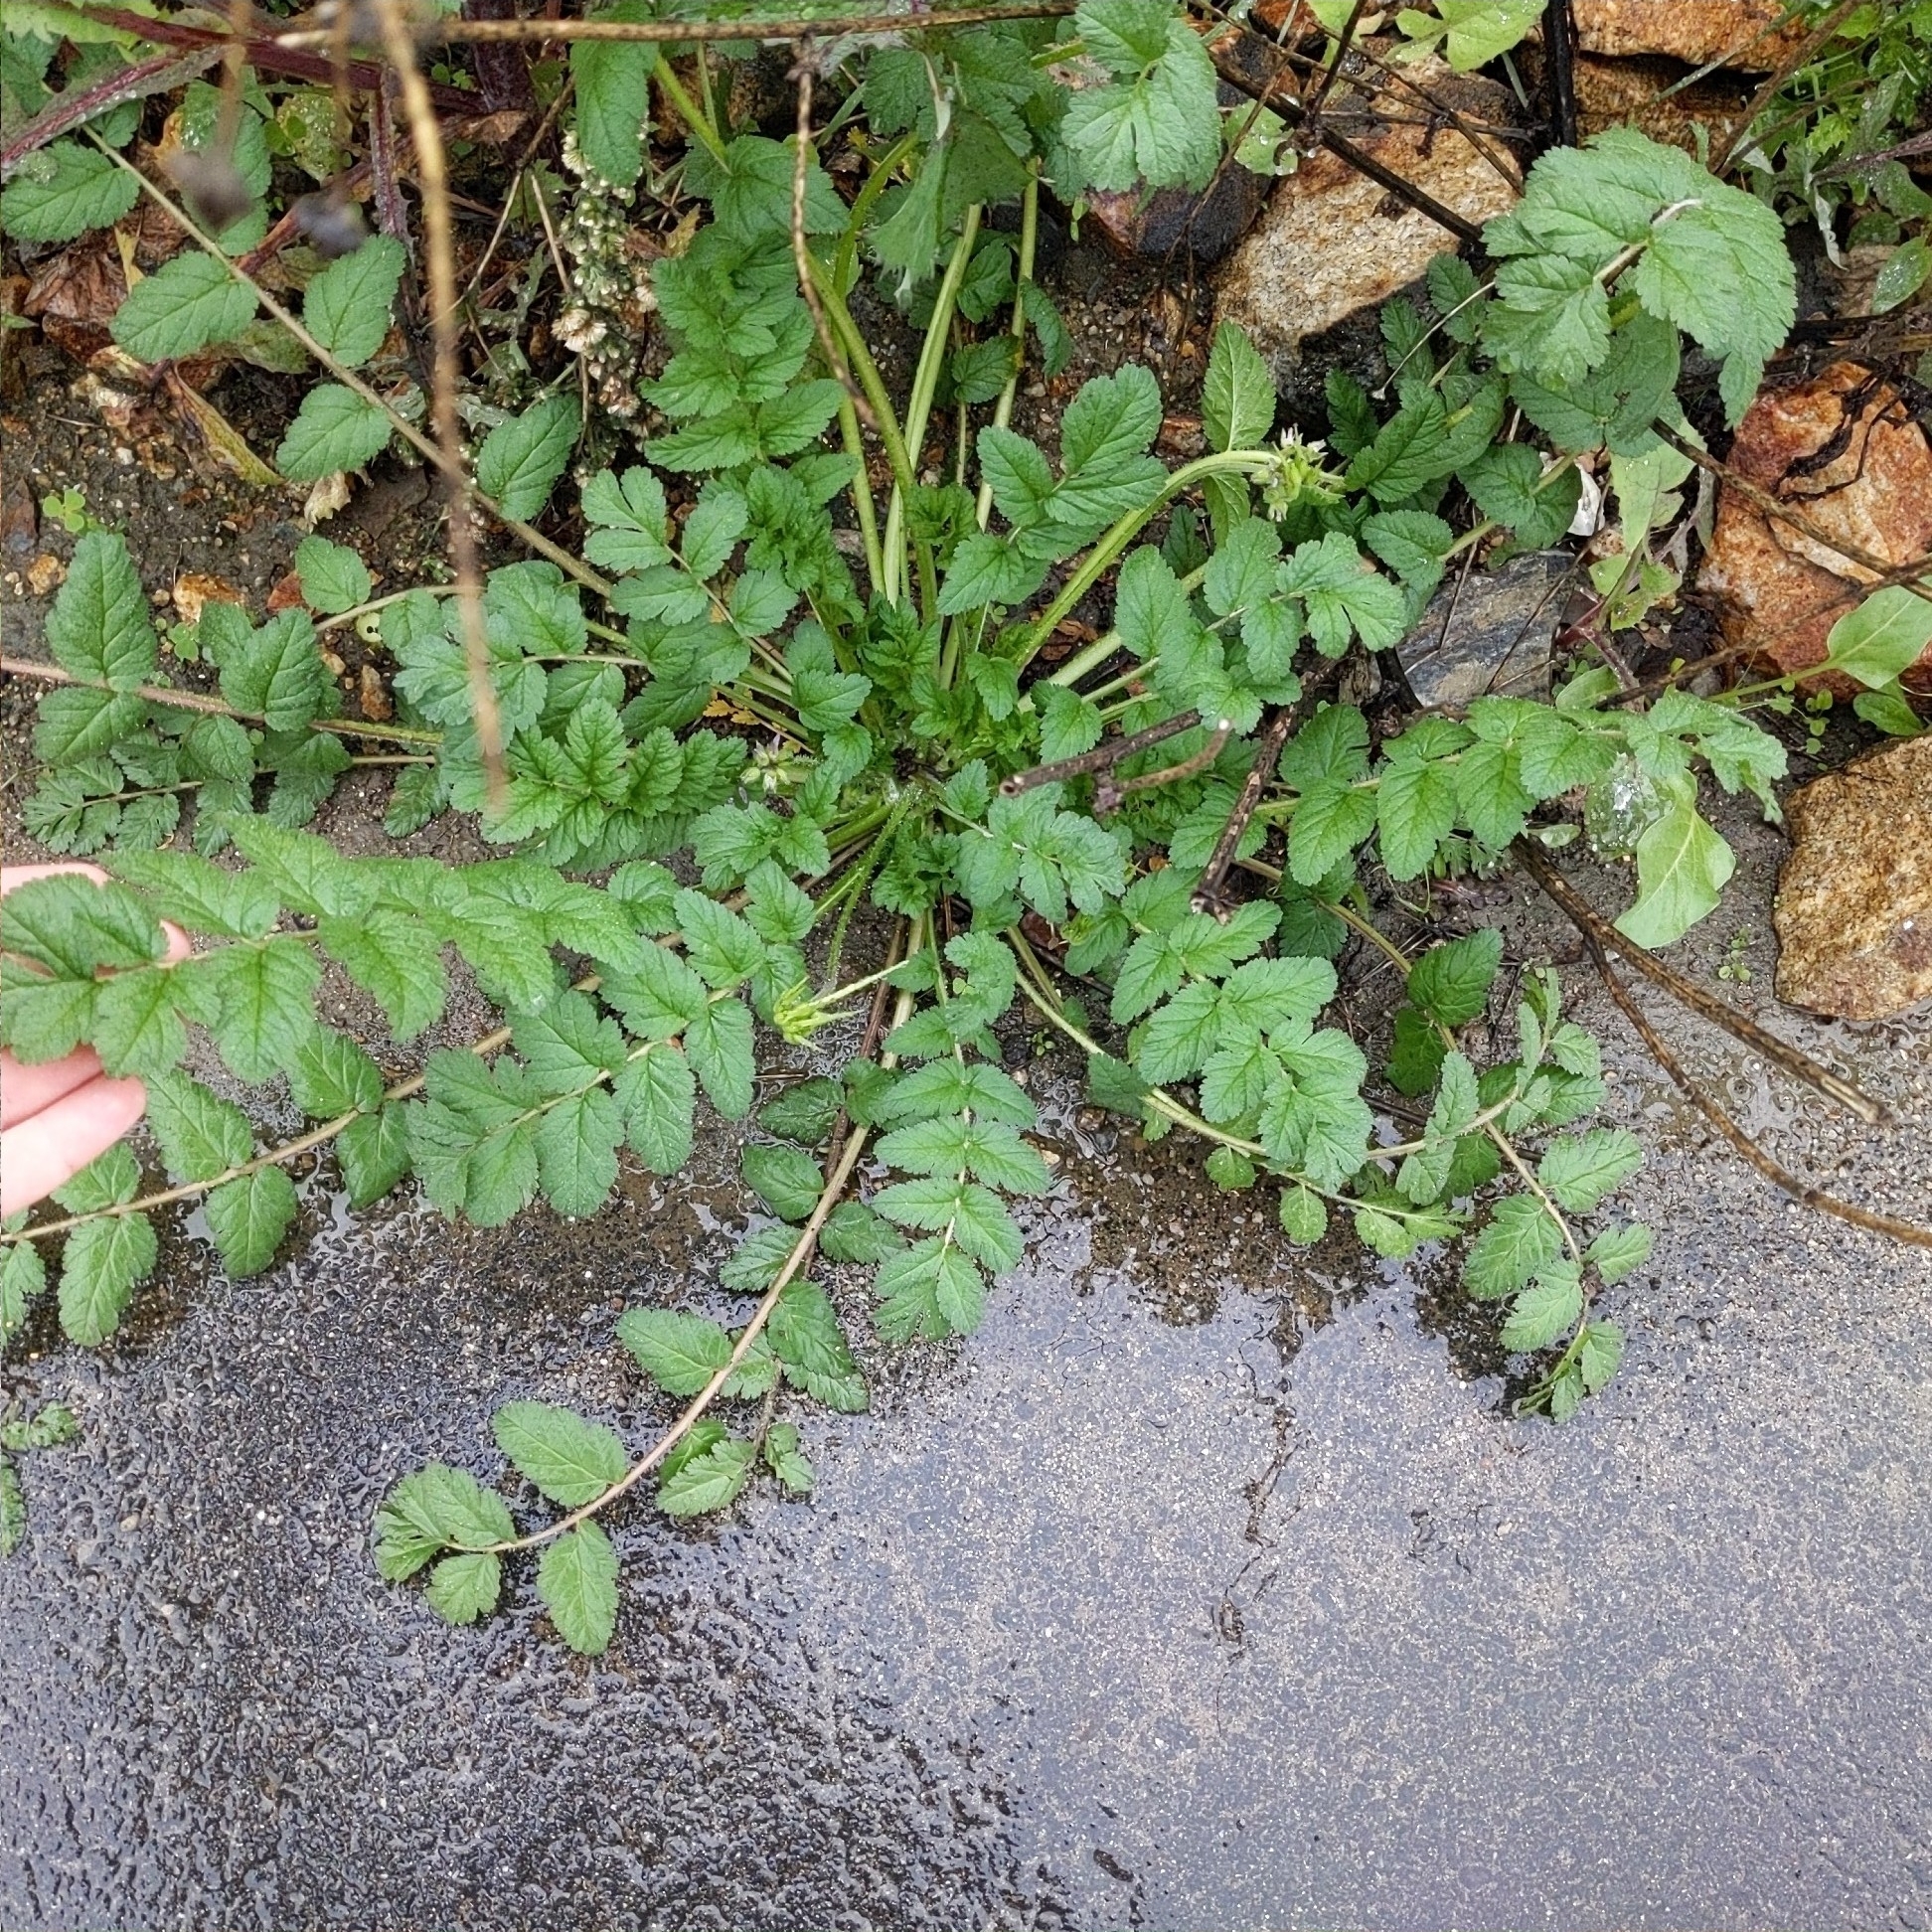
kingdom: Plantae
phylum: Tracheophyta
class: Magnoliopsida
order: Geraniales
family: Geraniaceae
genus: Erodium
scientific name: Erodium moschatum
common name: Musk stork's-bill
